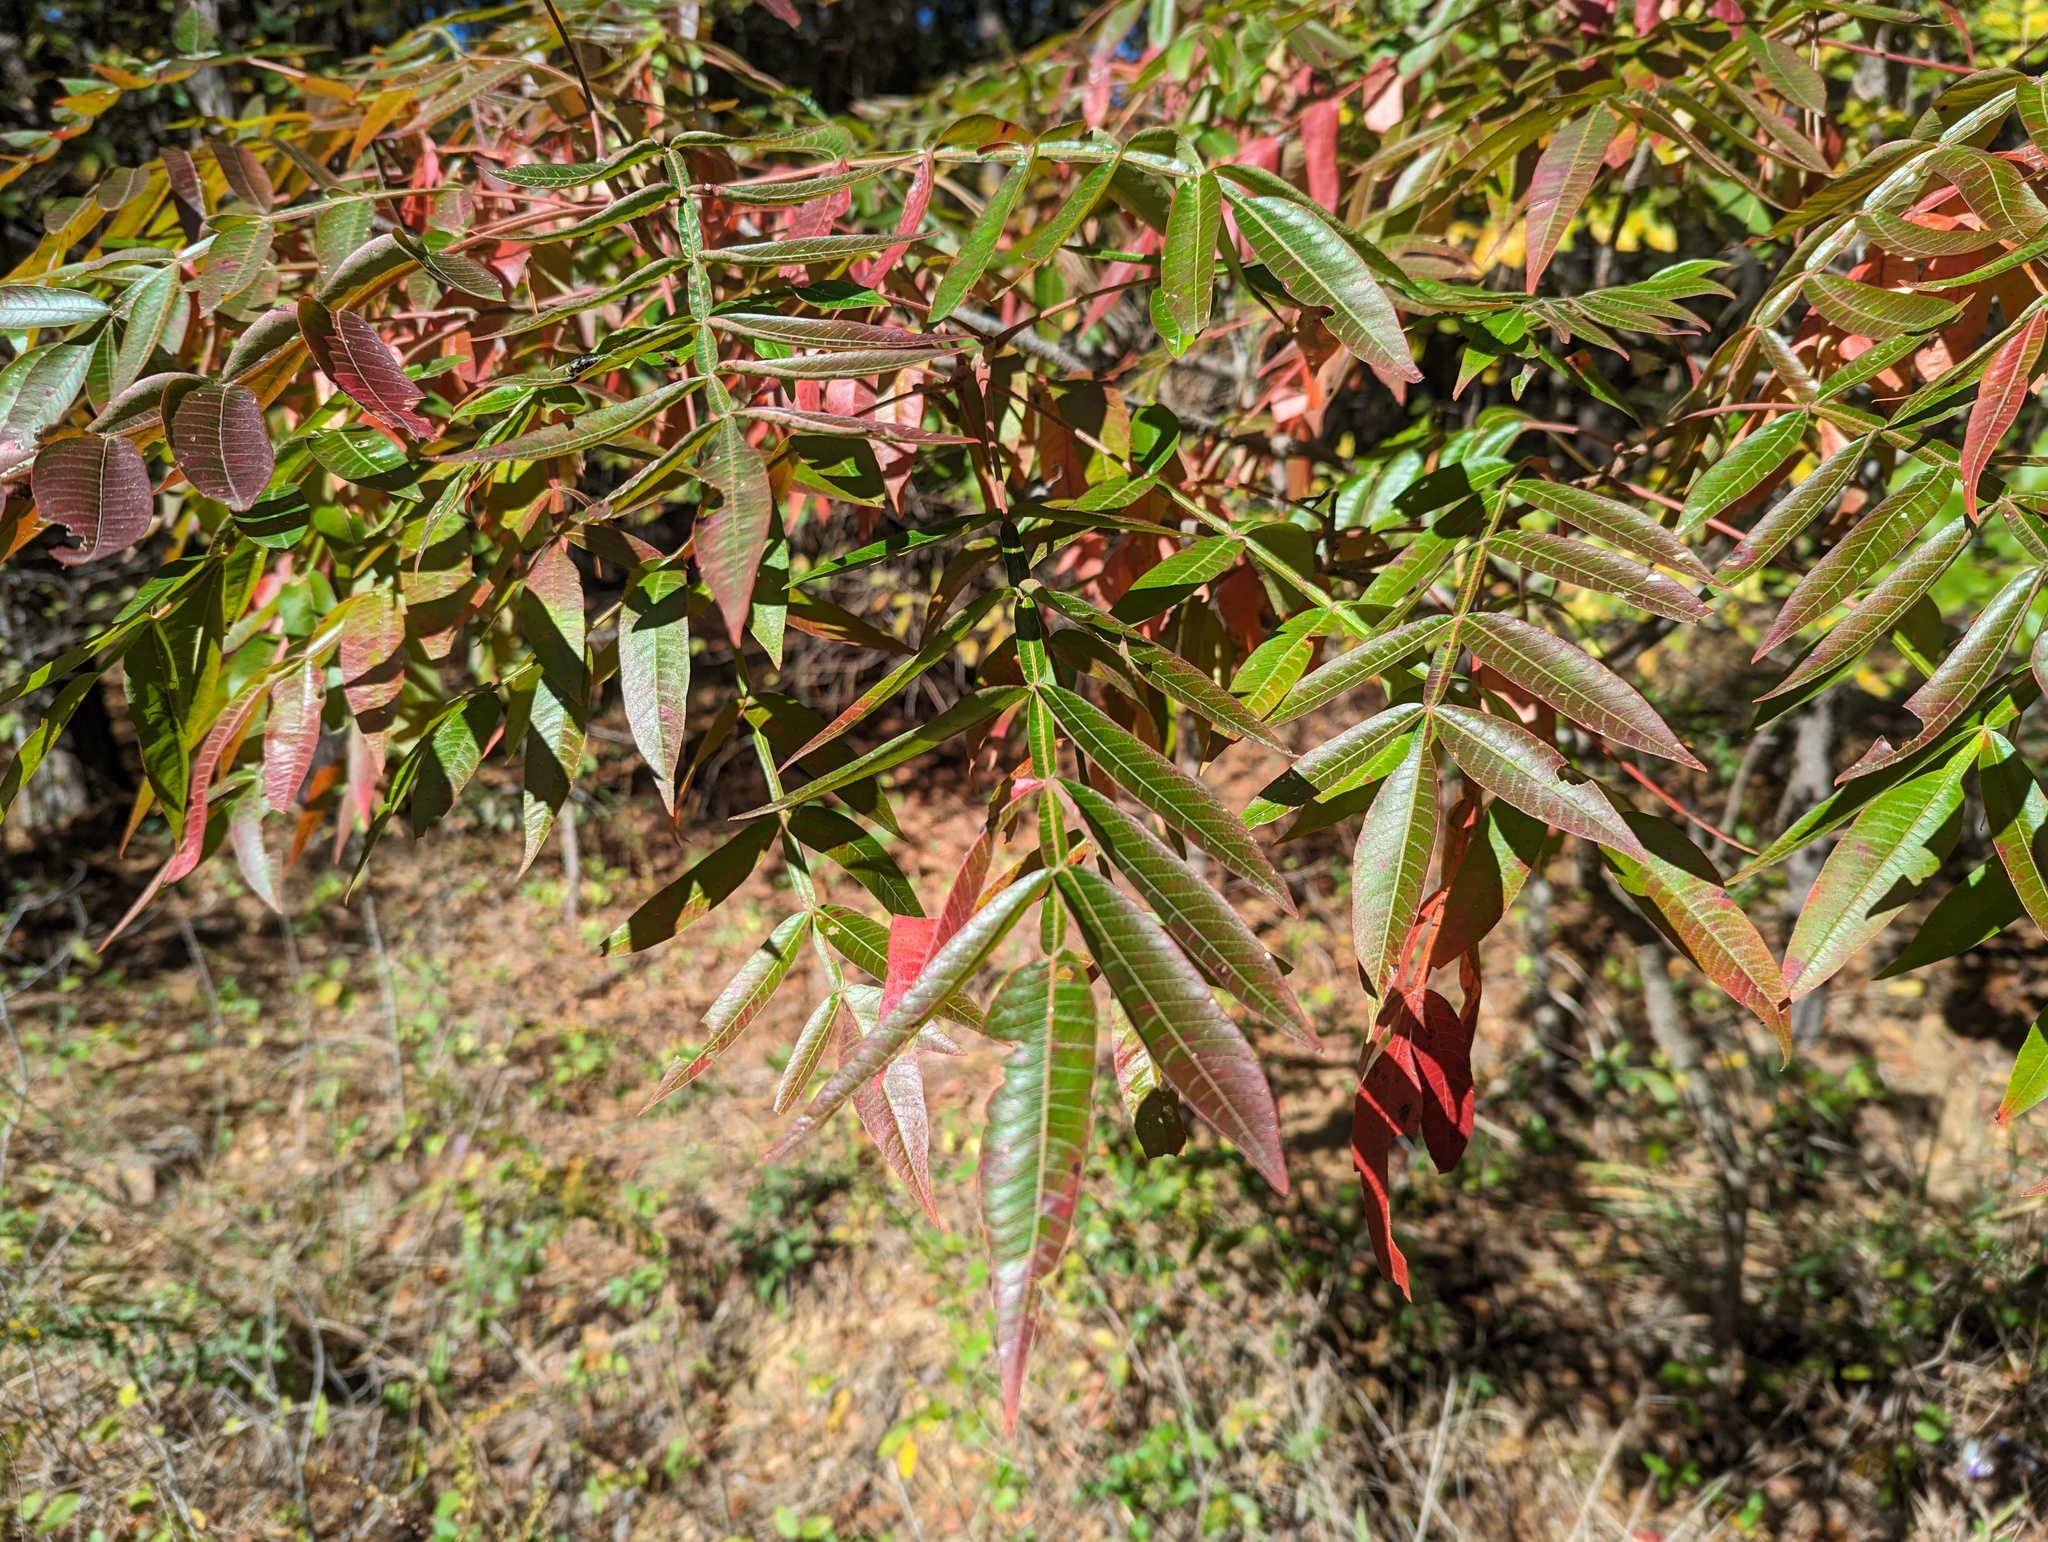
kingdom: Plantae
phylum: Tracheophyta
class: Magnoliopsida
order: Sapindales
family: Anacardiaceae
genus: Rhus
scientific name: Rhus copallina
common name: Shining sumac
